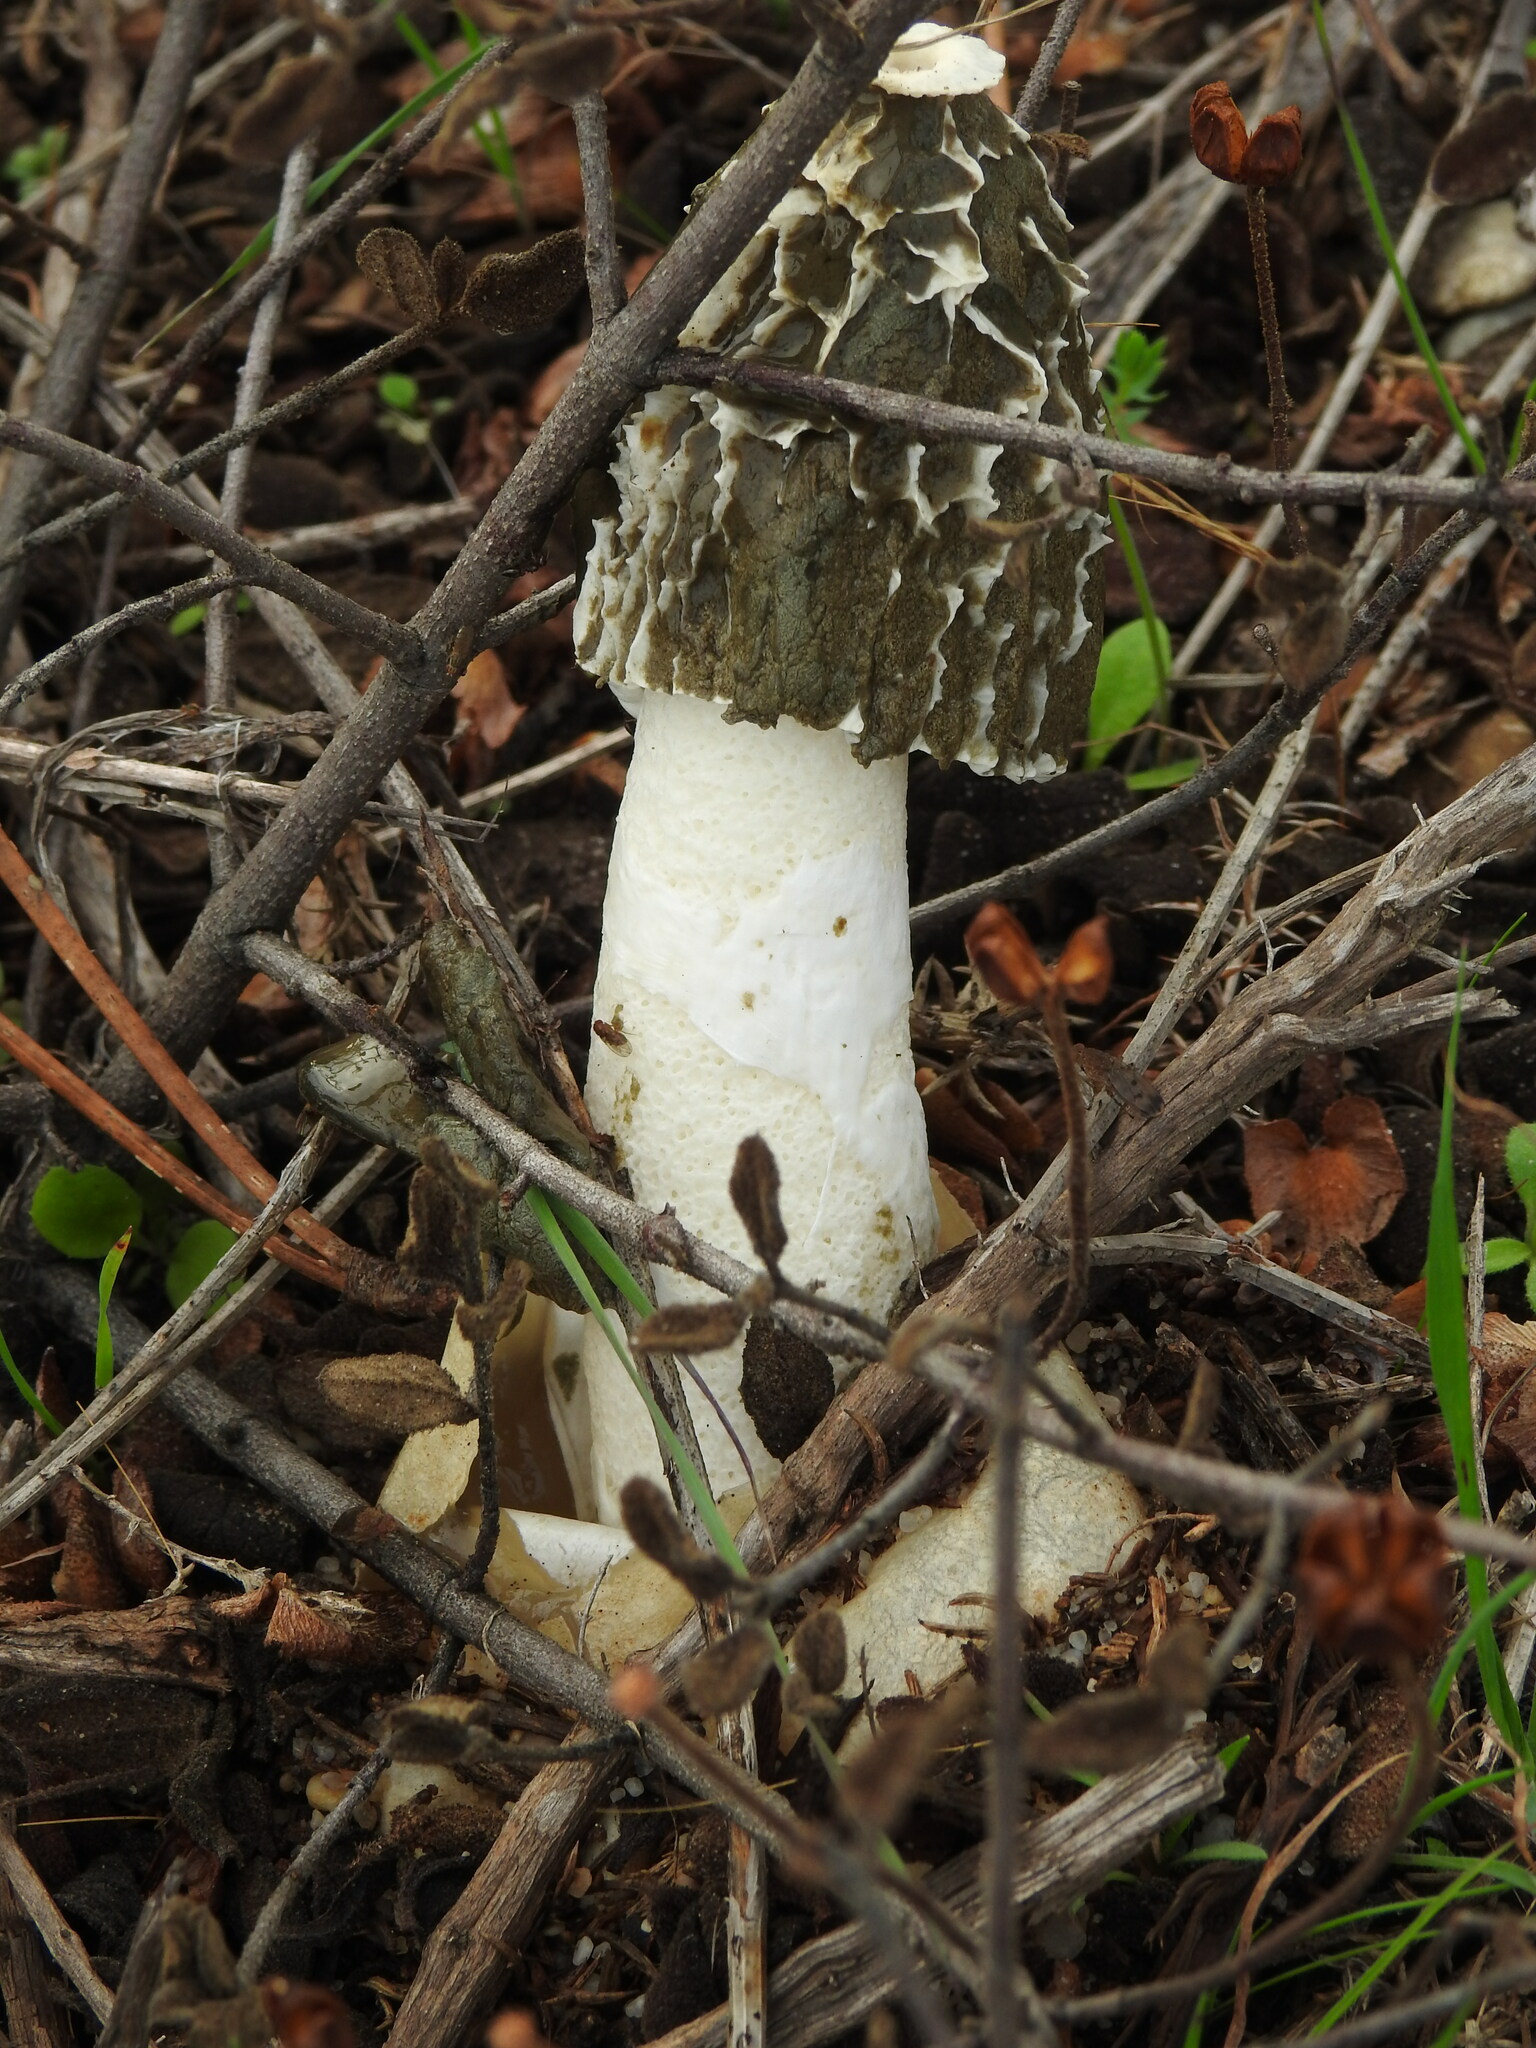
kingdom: Fungi
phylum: Basidiomycota
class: Agaricomycetes
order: Phallales
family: Phallaceae
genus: Phallus
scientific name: Phallus impudicus
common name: Common stinkhorn
